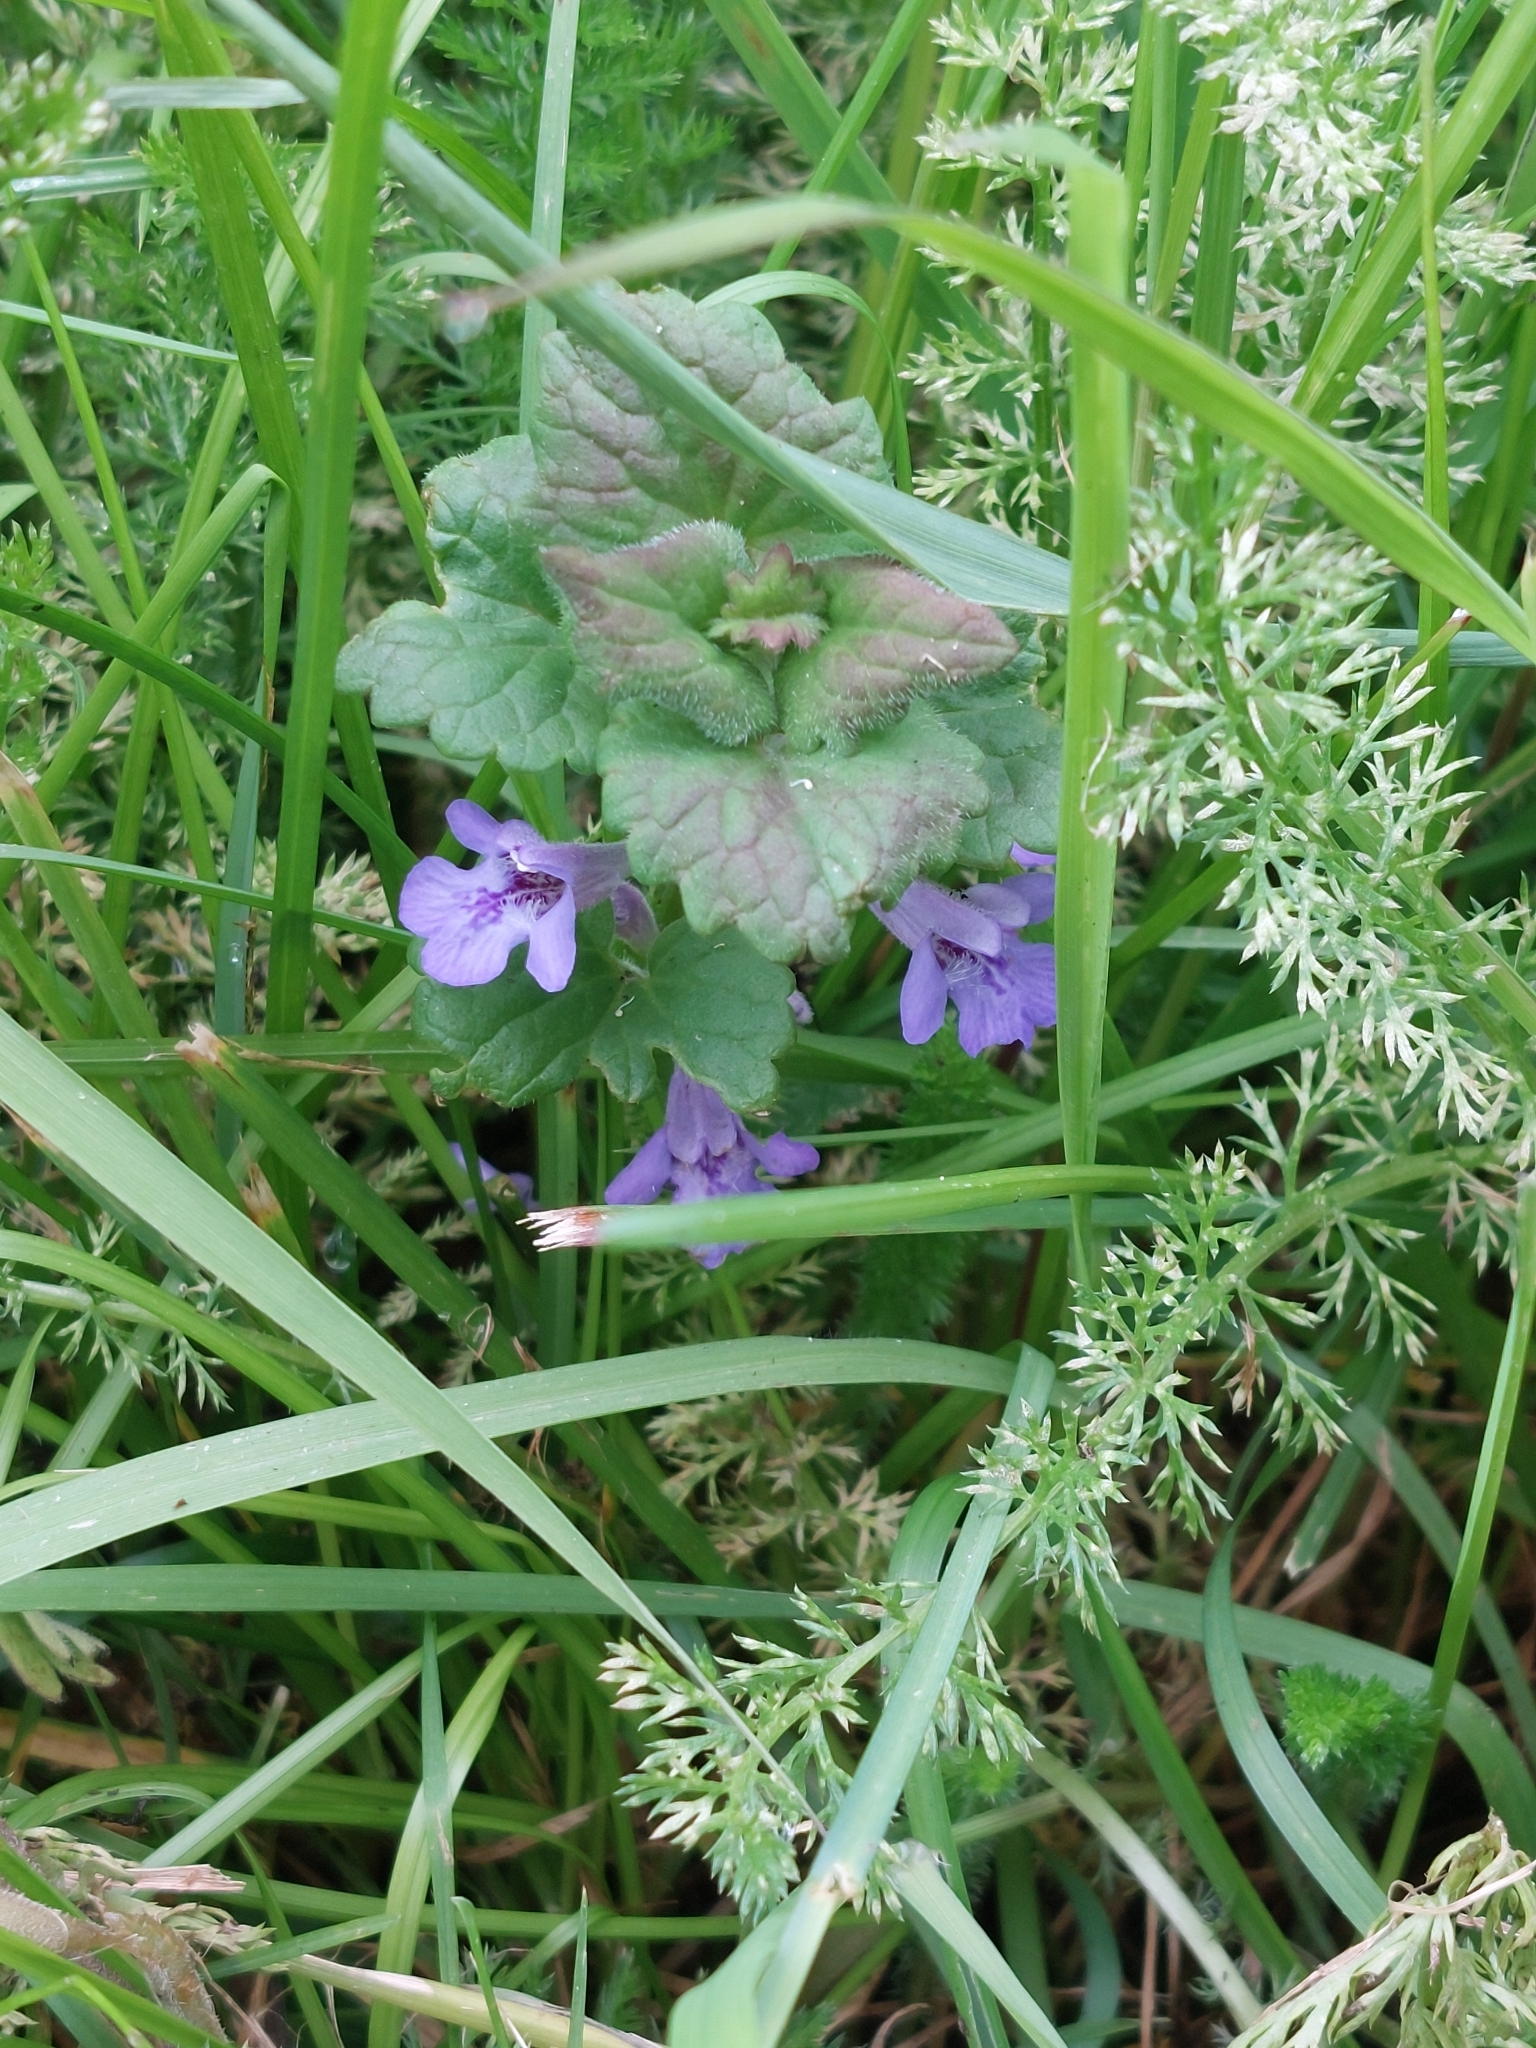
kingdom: Plantae
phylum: Tracheophyta
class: Magnoliopsida
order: Lamiales
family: Lamiaceae
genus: Glechoma
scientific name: Glechoma hederacea
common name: Ground ivy
